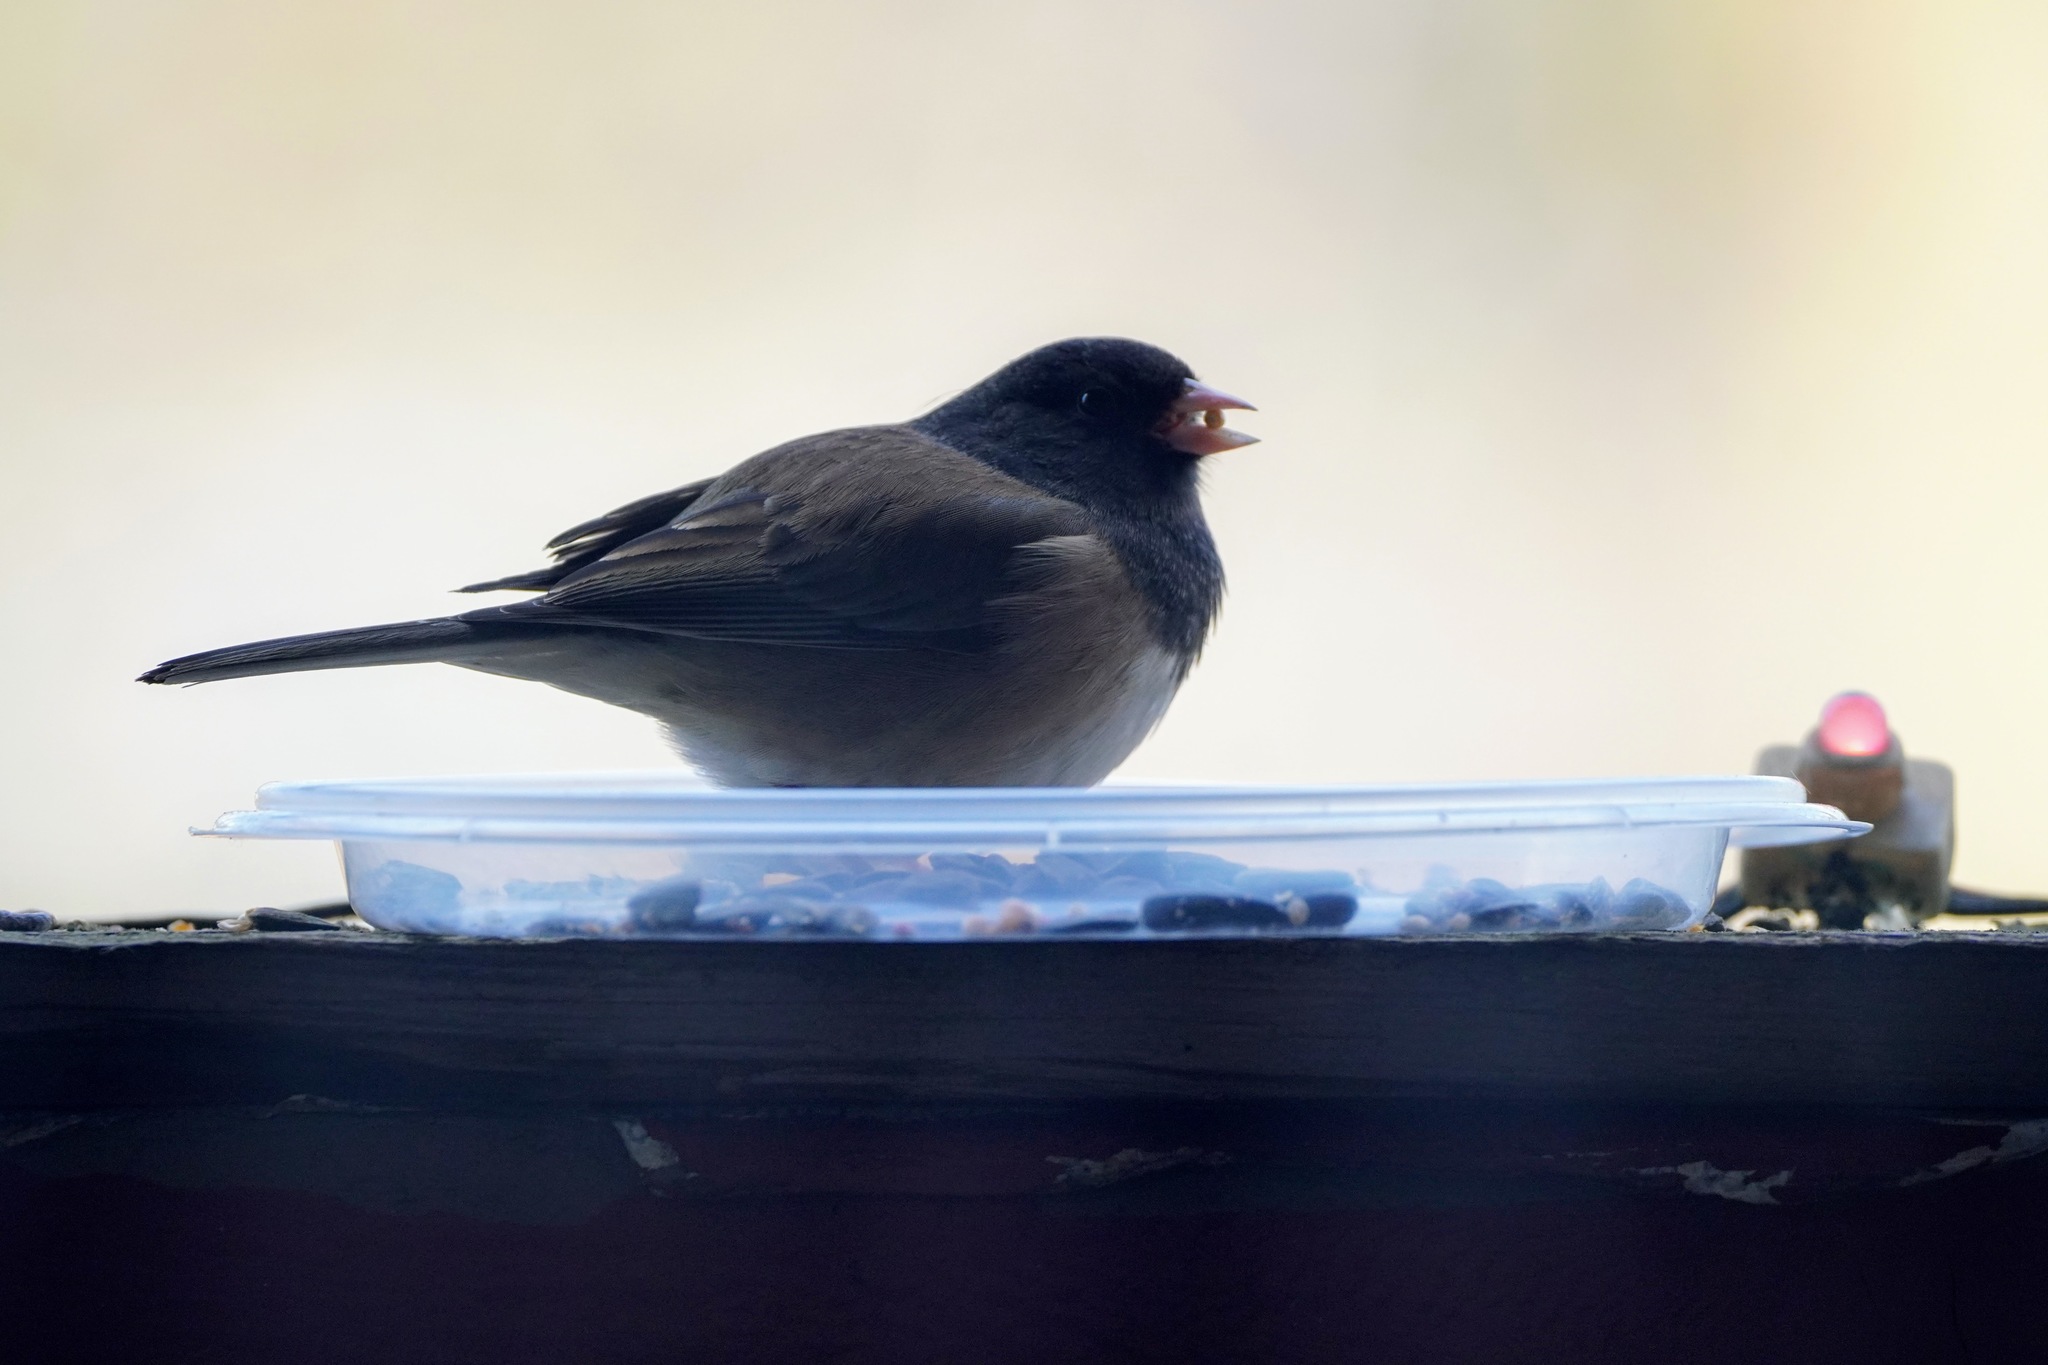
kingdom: Animalia
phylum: Chordata
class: Aves
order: Passeriformes
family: Passerellidae
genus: Junco
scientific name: Junco hyemalis
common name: Dark-eyed junco
